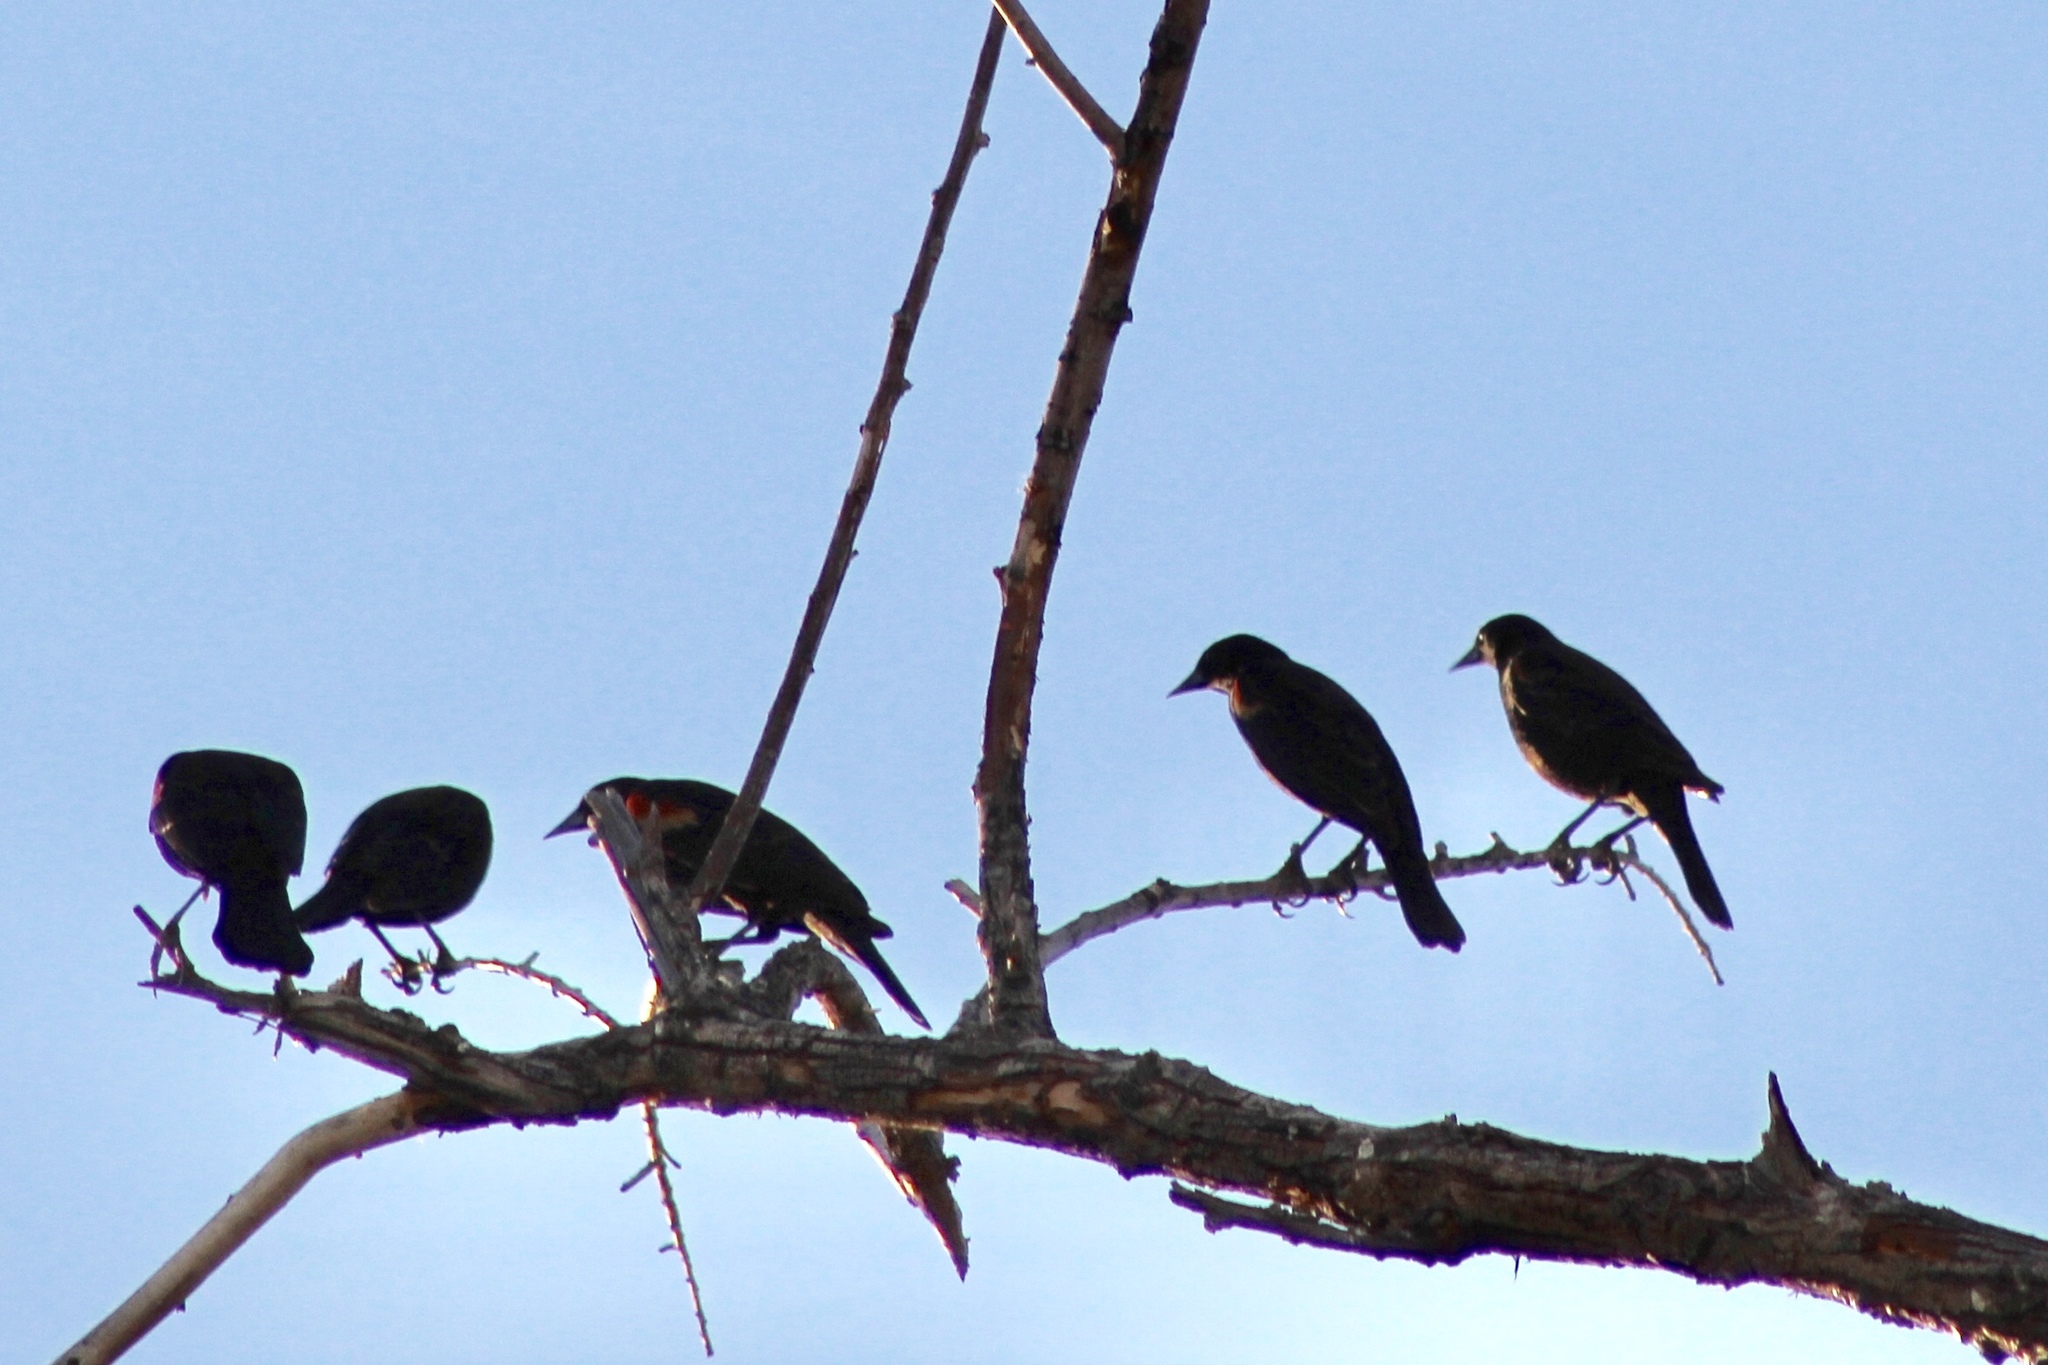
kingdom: Animalia
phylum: Chordata
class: Aves
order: Passeriformes
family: Icteridae
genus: Agelaius
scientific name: Agelaius phoeniceus
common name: Red-winged blackbird
